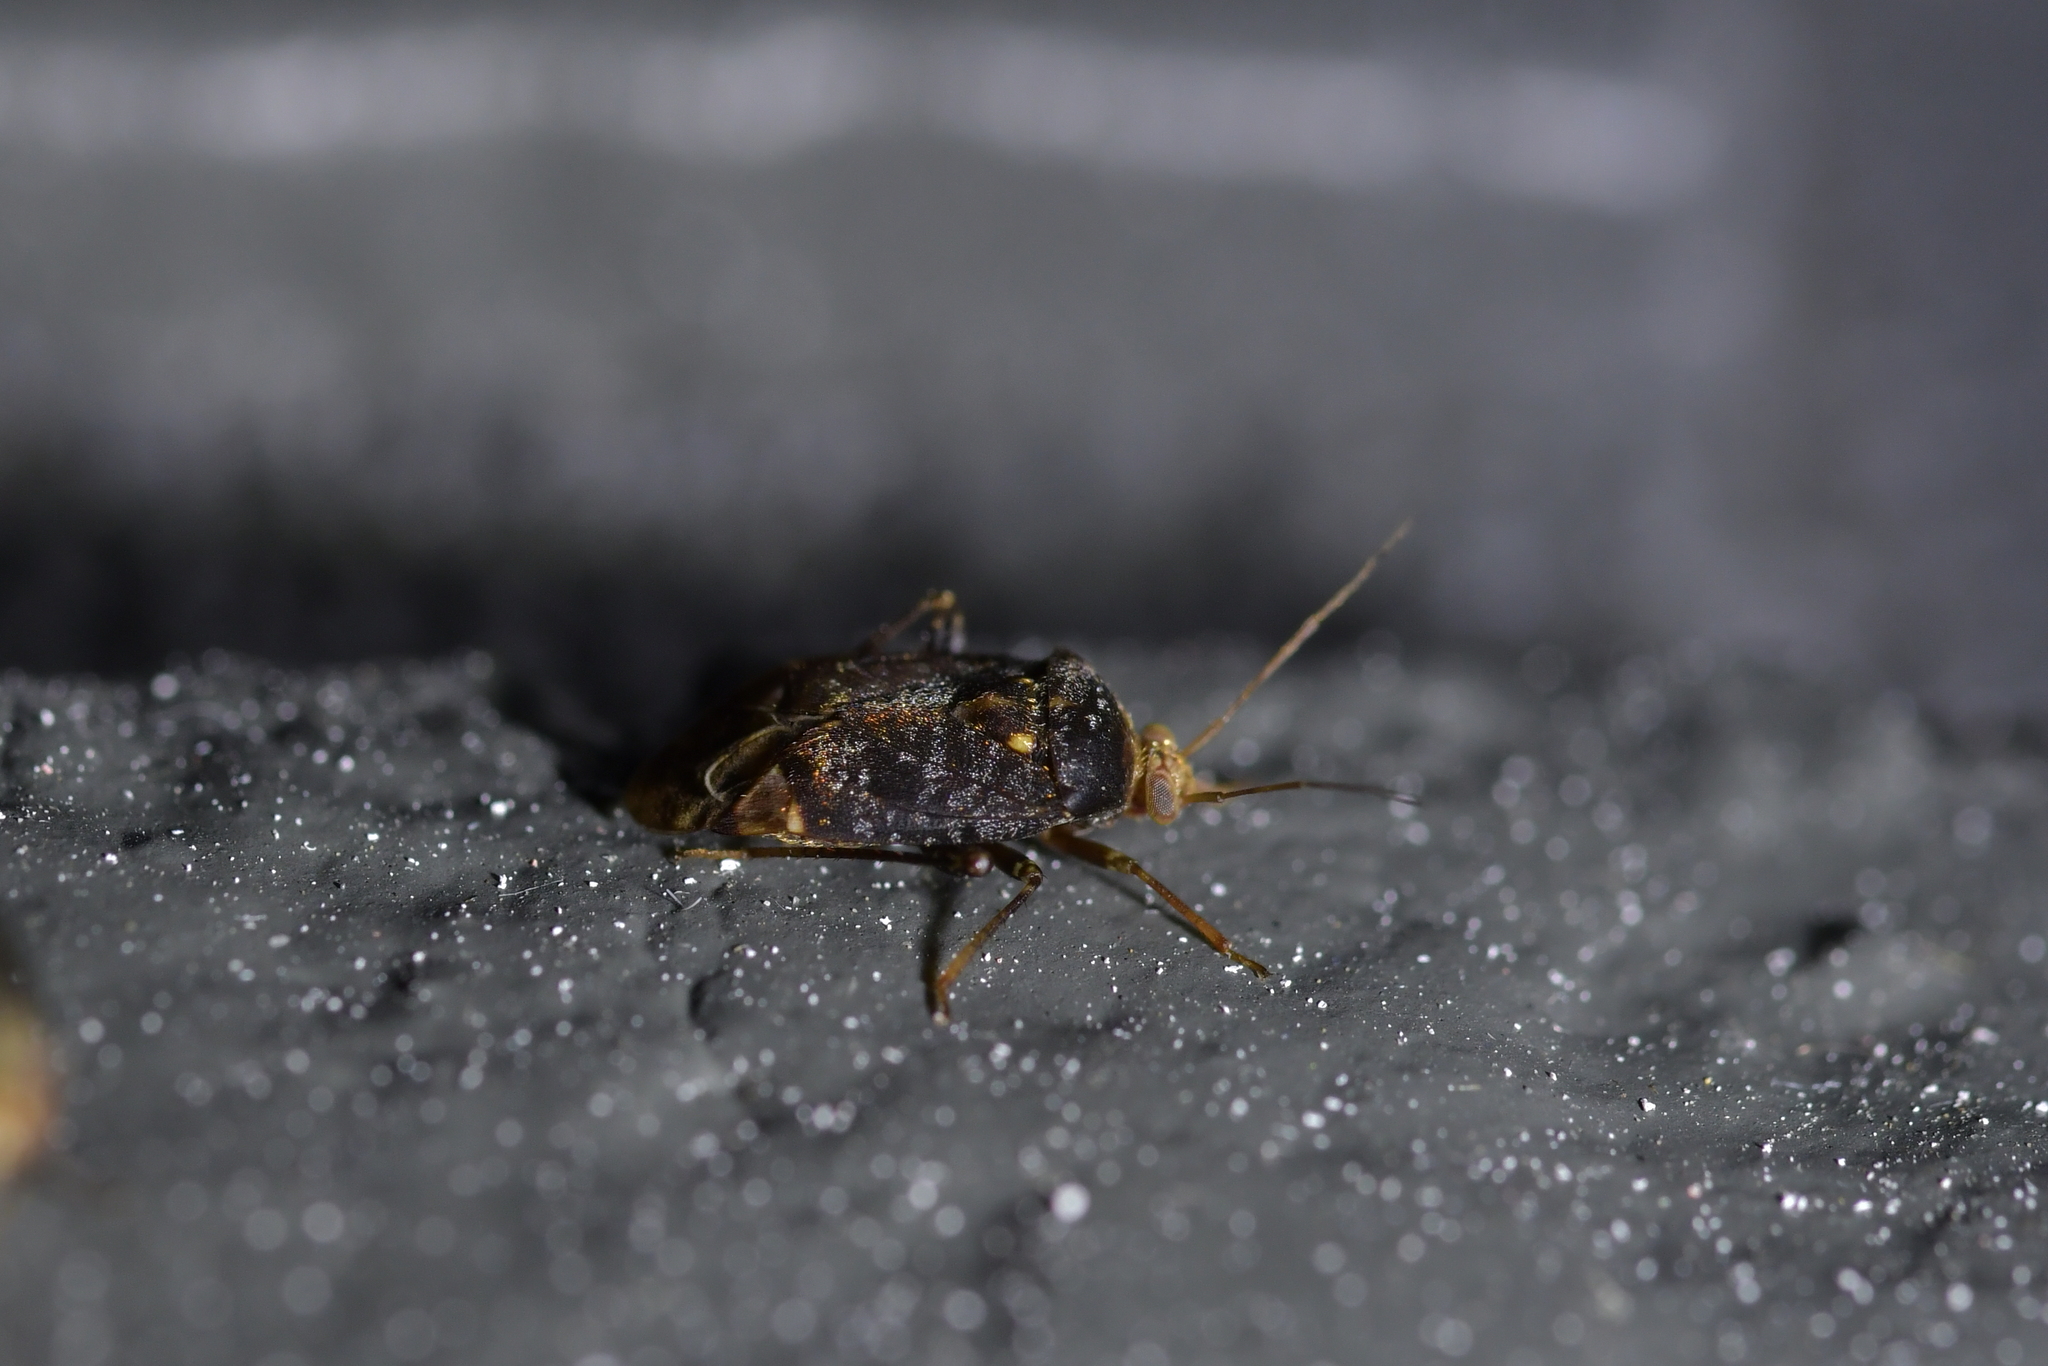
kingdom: Animalia
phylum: Arthropoda
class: Insecta
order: Hemiptera
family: Miridae
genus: Wekamiris
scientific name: Wekamiris auropilosus
